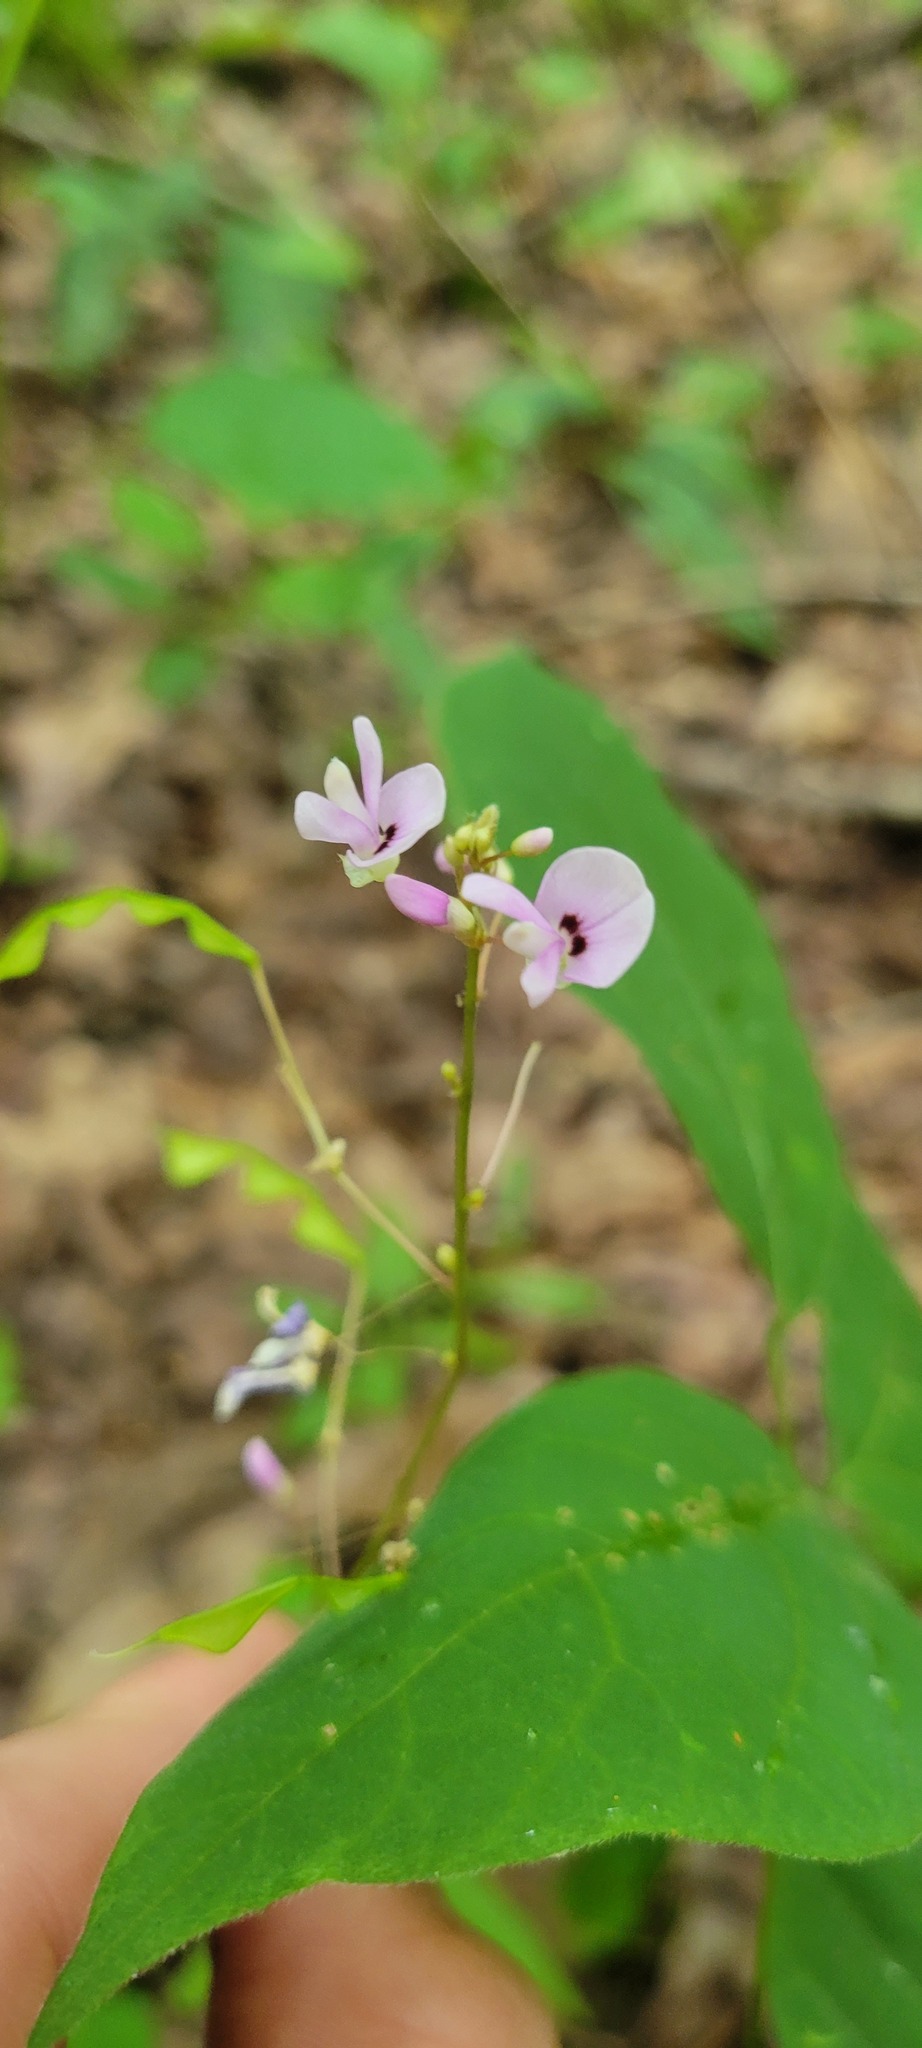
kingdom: Plantae
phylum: Tracheophyta
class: Magnoliopsida
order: Fabales
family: Fabaceae
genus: Hylodesmum
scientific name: Hylodesmum nudiflorum
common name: Bare-stemmed tick-trefoil
